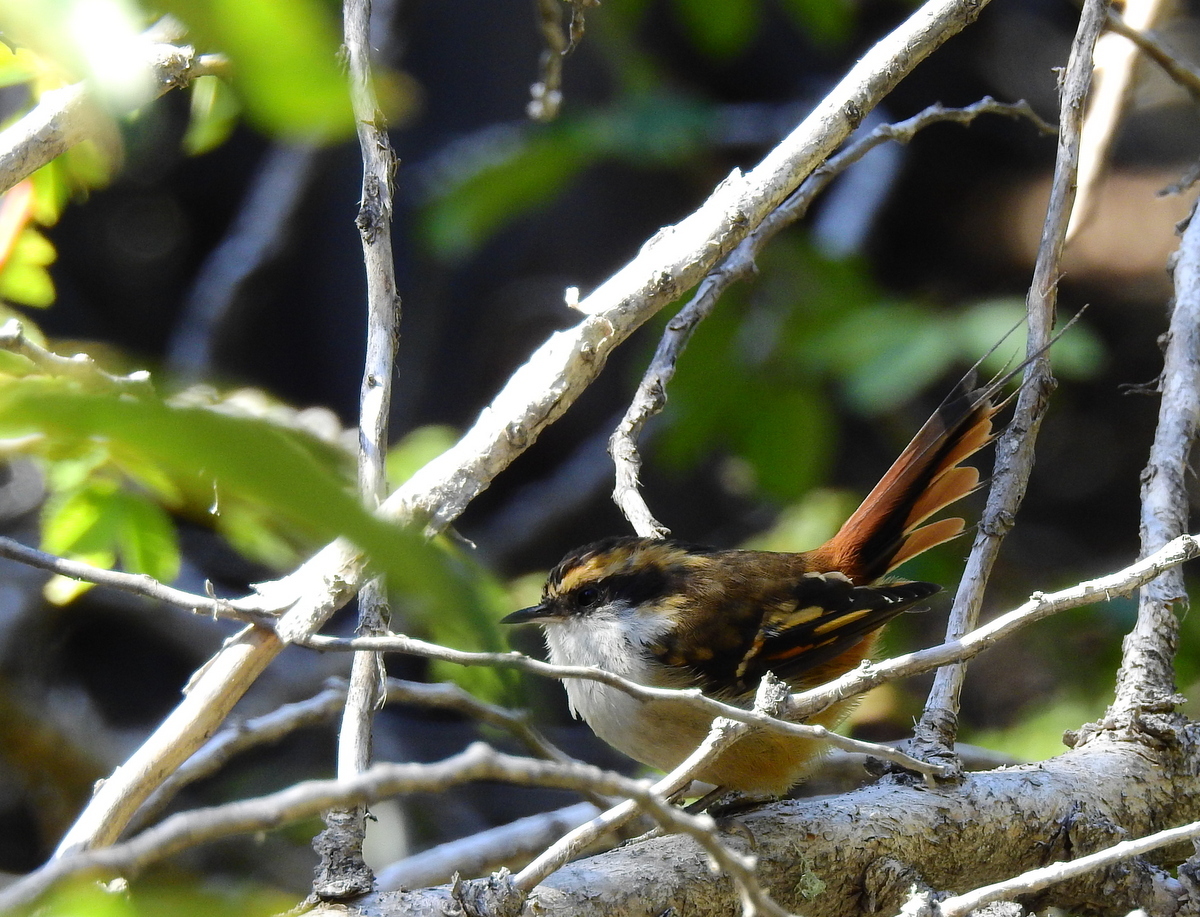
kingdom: Animalia
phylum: Chordata
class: Aves
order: Passeriformes
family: Furnariidae
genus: Aphrastura
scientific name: Aphrastura spinicauda
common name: Thorn-tailed rayadito
